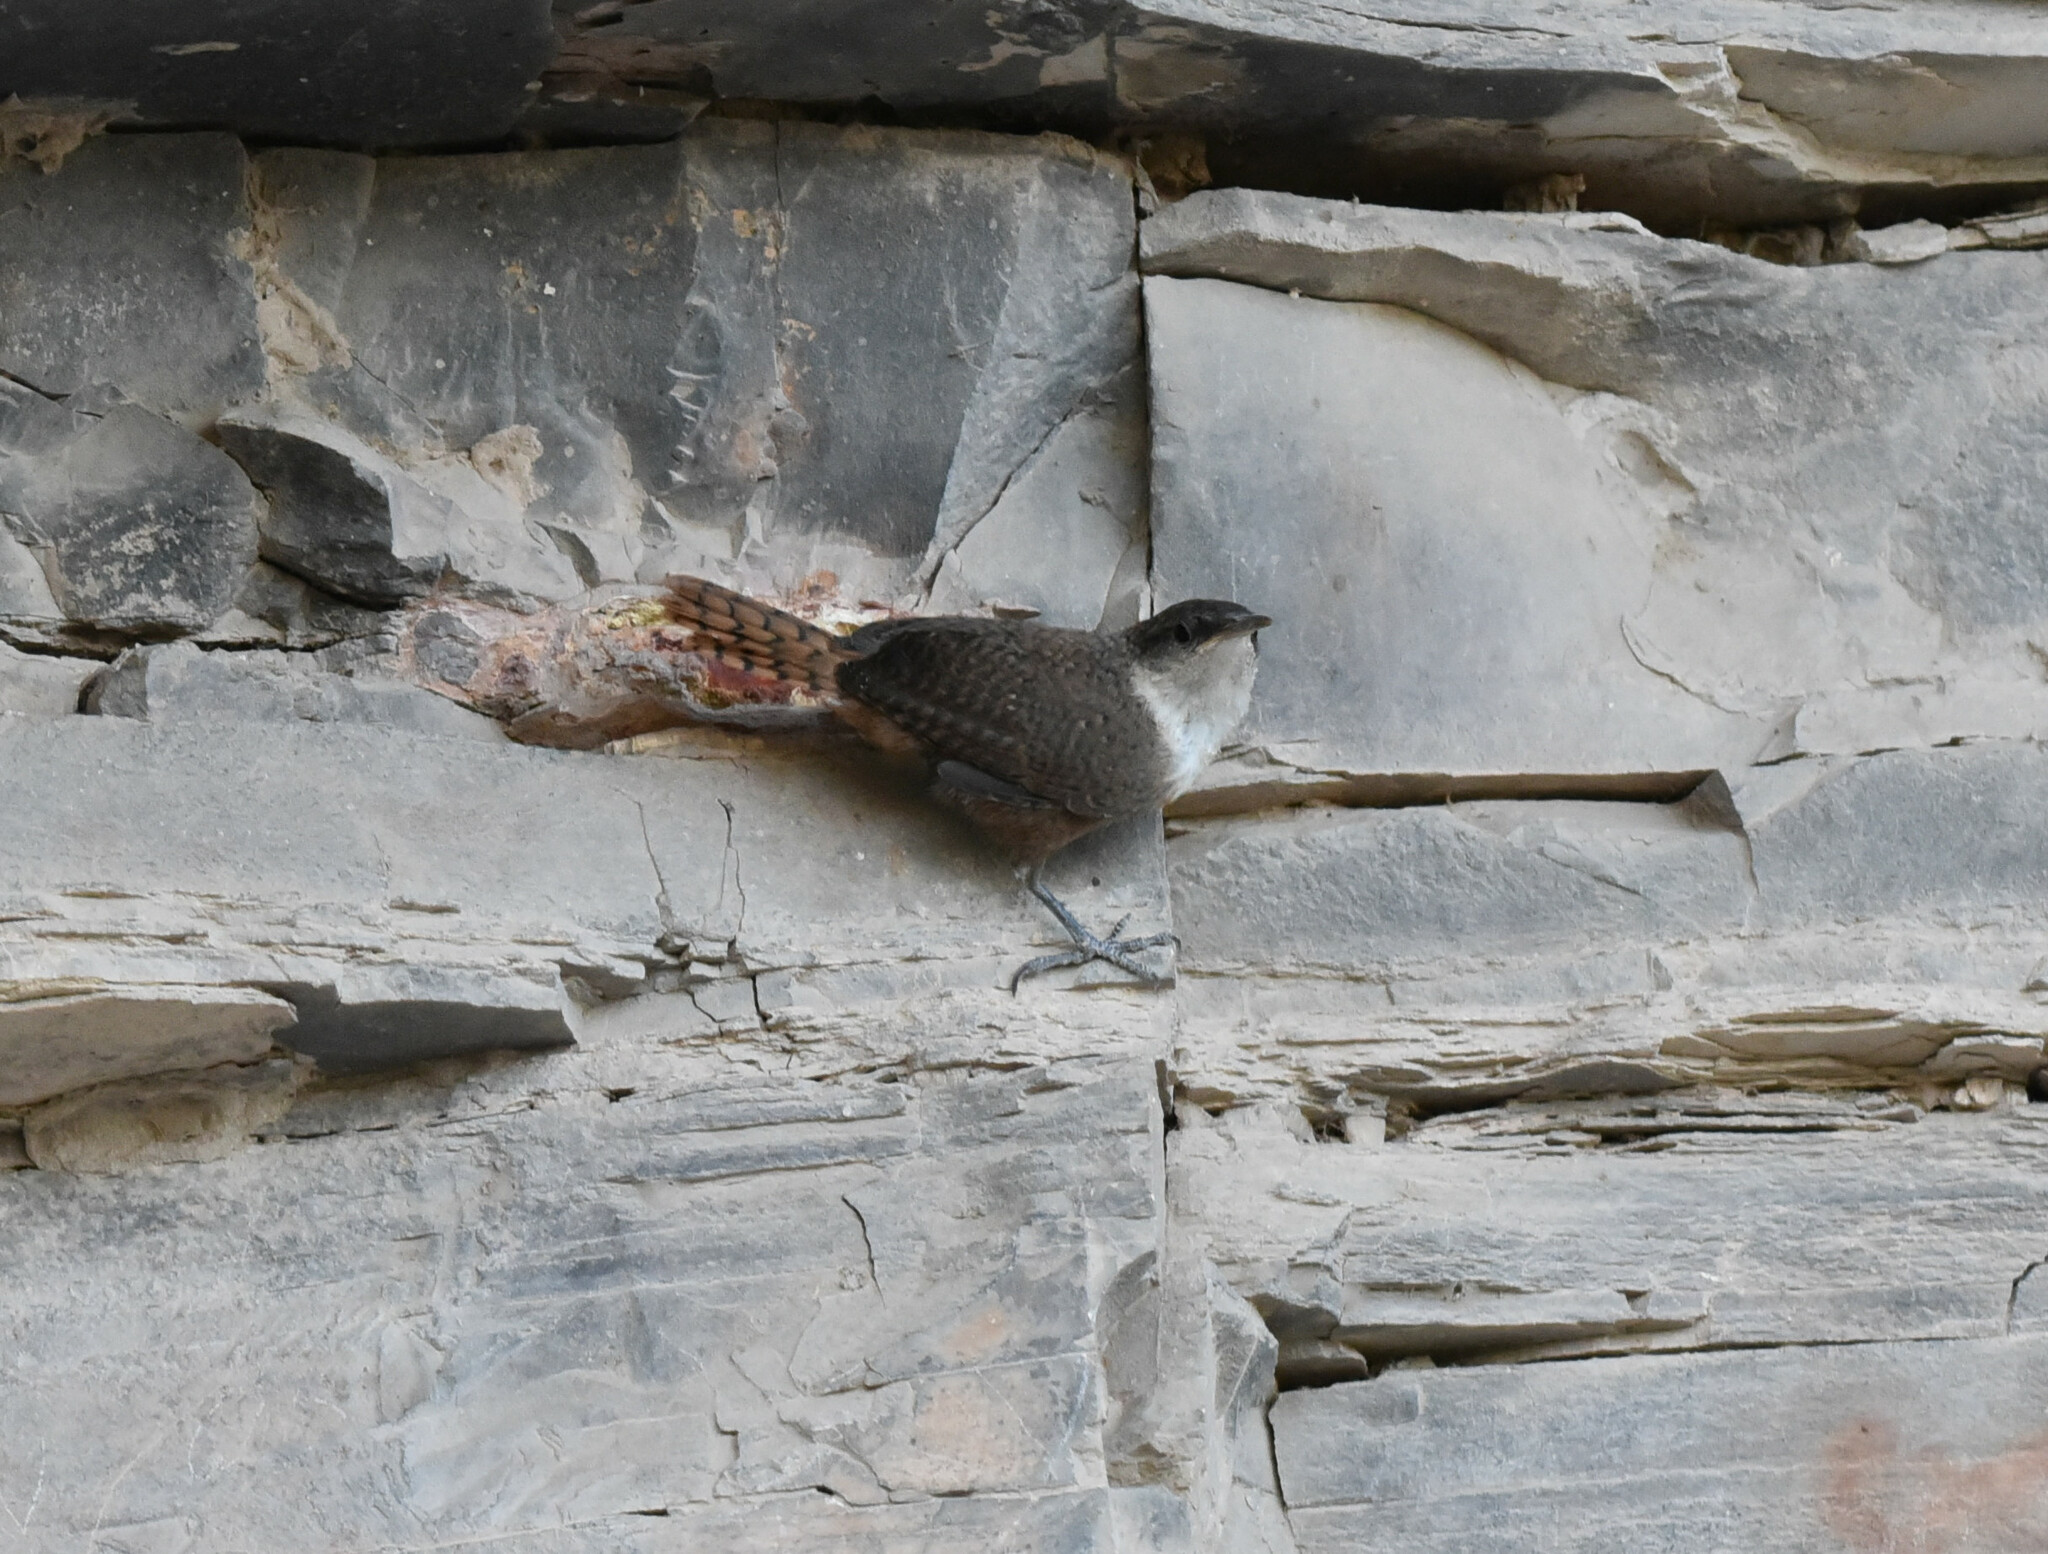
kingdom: Animalia
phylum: Chordata
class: Aves
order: Passeriformes
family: Troglodytidae
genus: Catherpes
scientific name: Catherpes mexicanus
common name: Canyon wren
